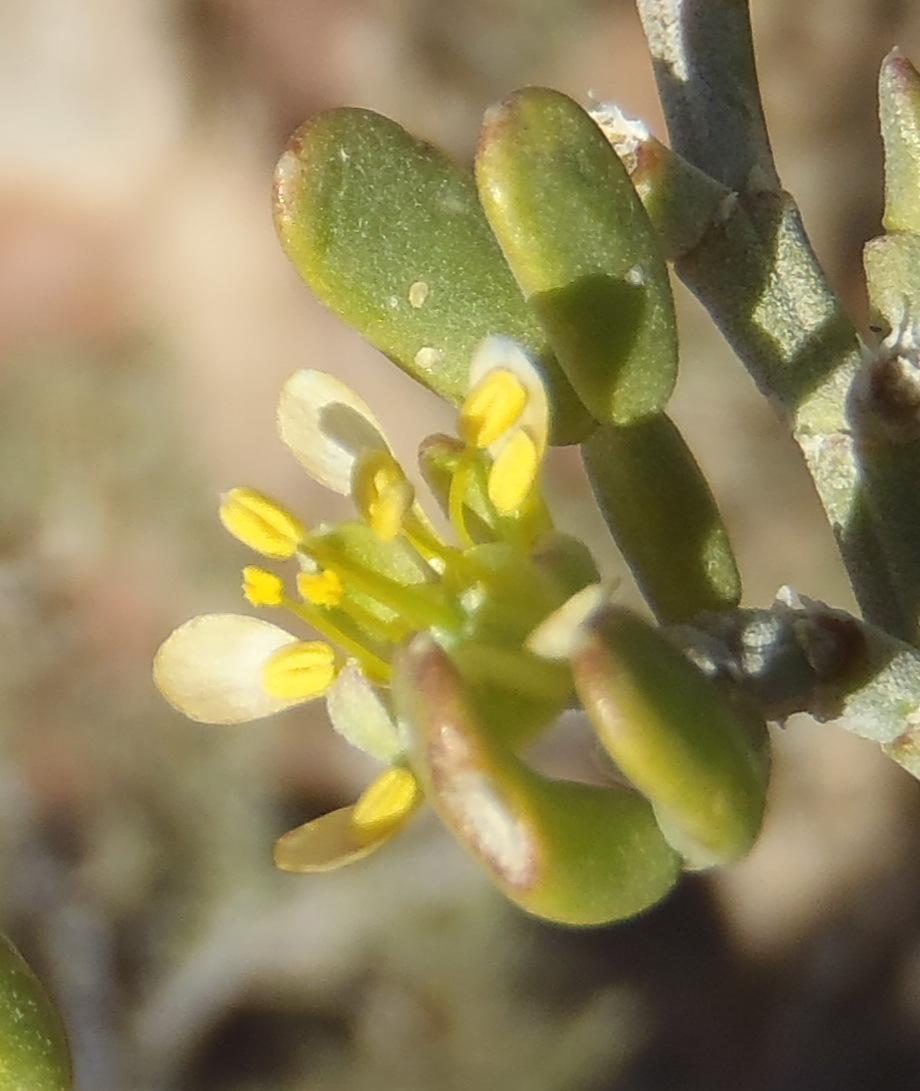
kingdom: Plantae
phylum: Tracheophyta
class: Magnoliopsida
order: Zygophyllales
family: Zygophyllaceae
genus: Tetraena
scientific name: Tetraena microcarpa
